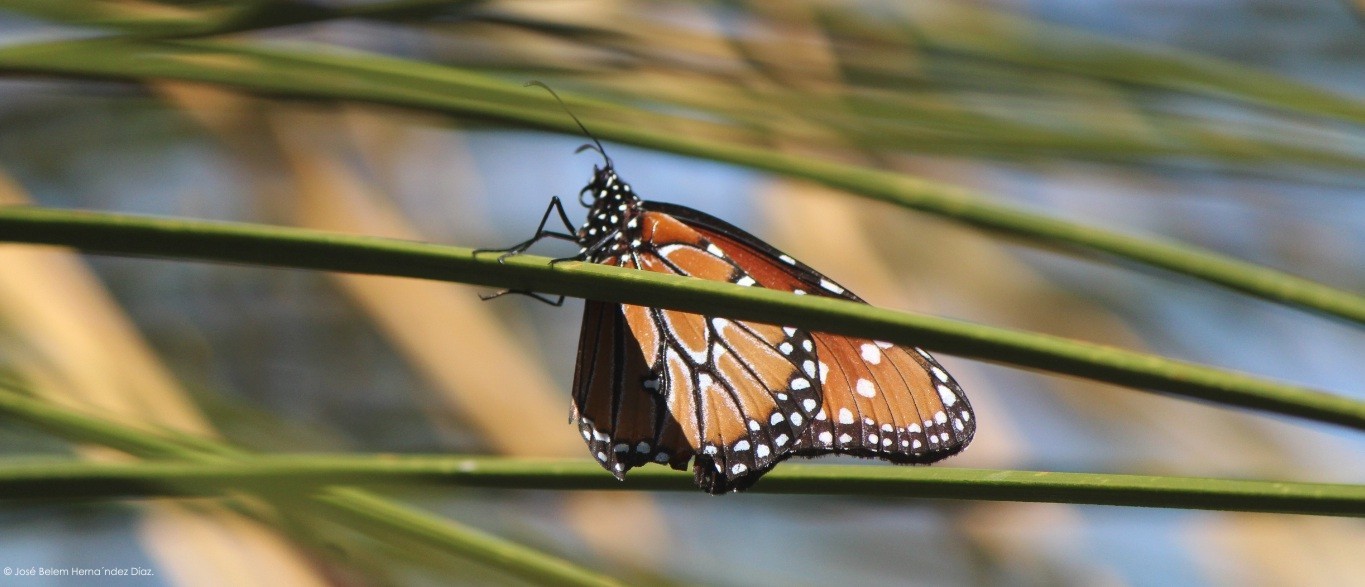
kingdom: Animalia
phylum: Arthropoda
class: Insecta
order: Lepidoptera
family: Nymphalidae
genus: Danaus
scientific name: Danaus gilippus
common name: Queen
